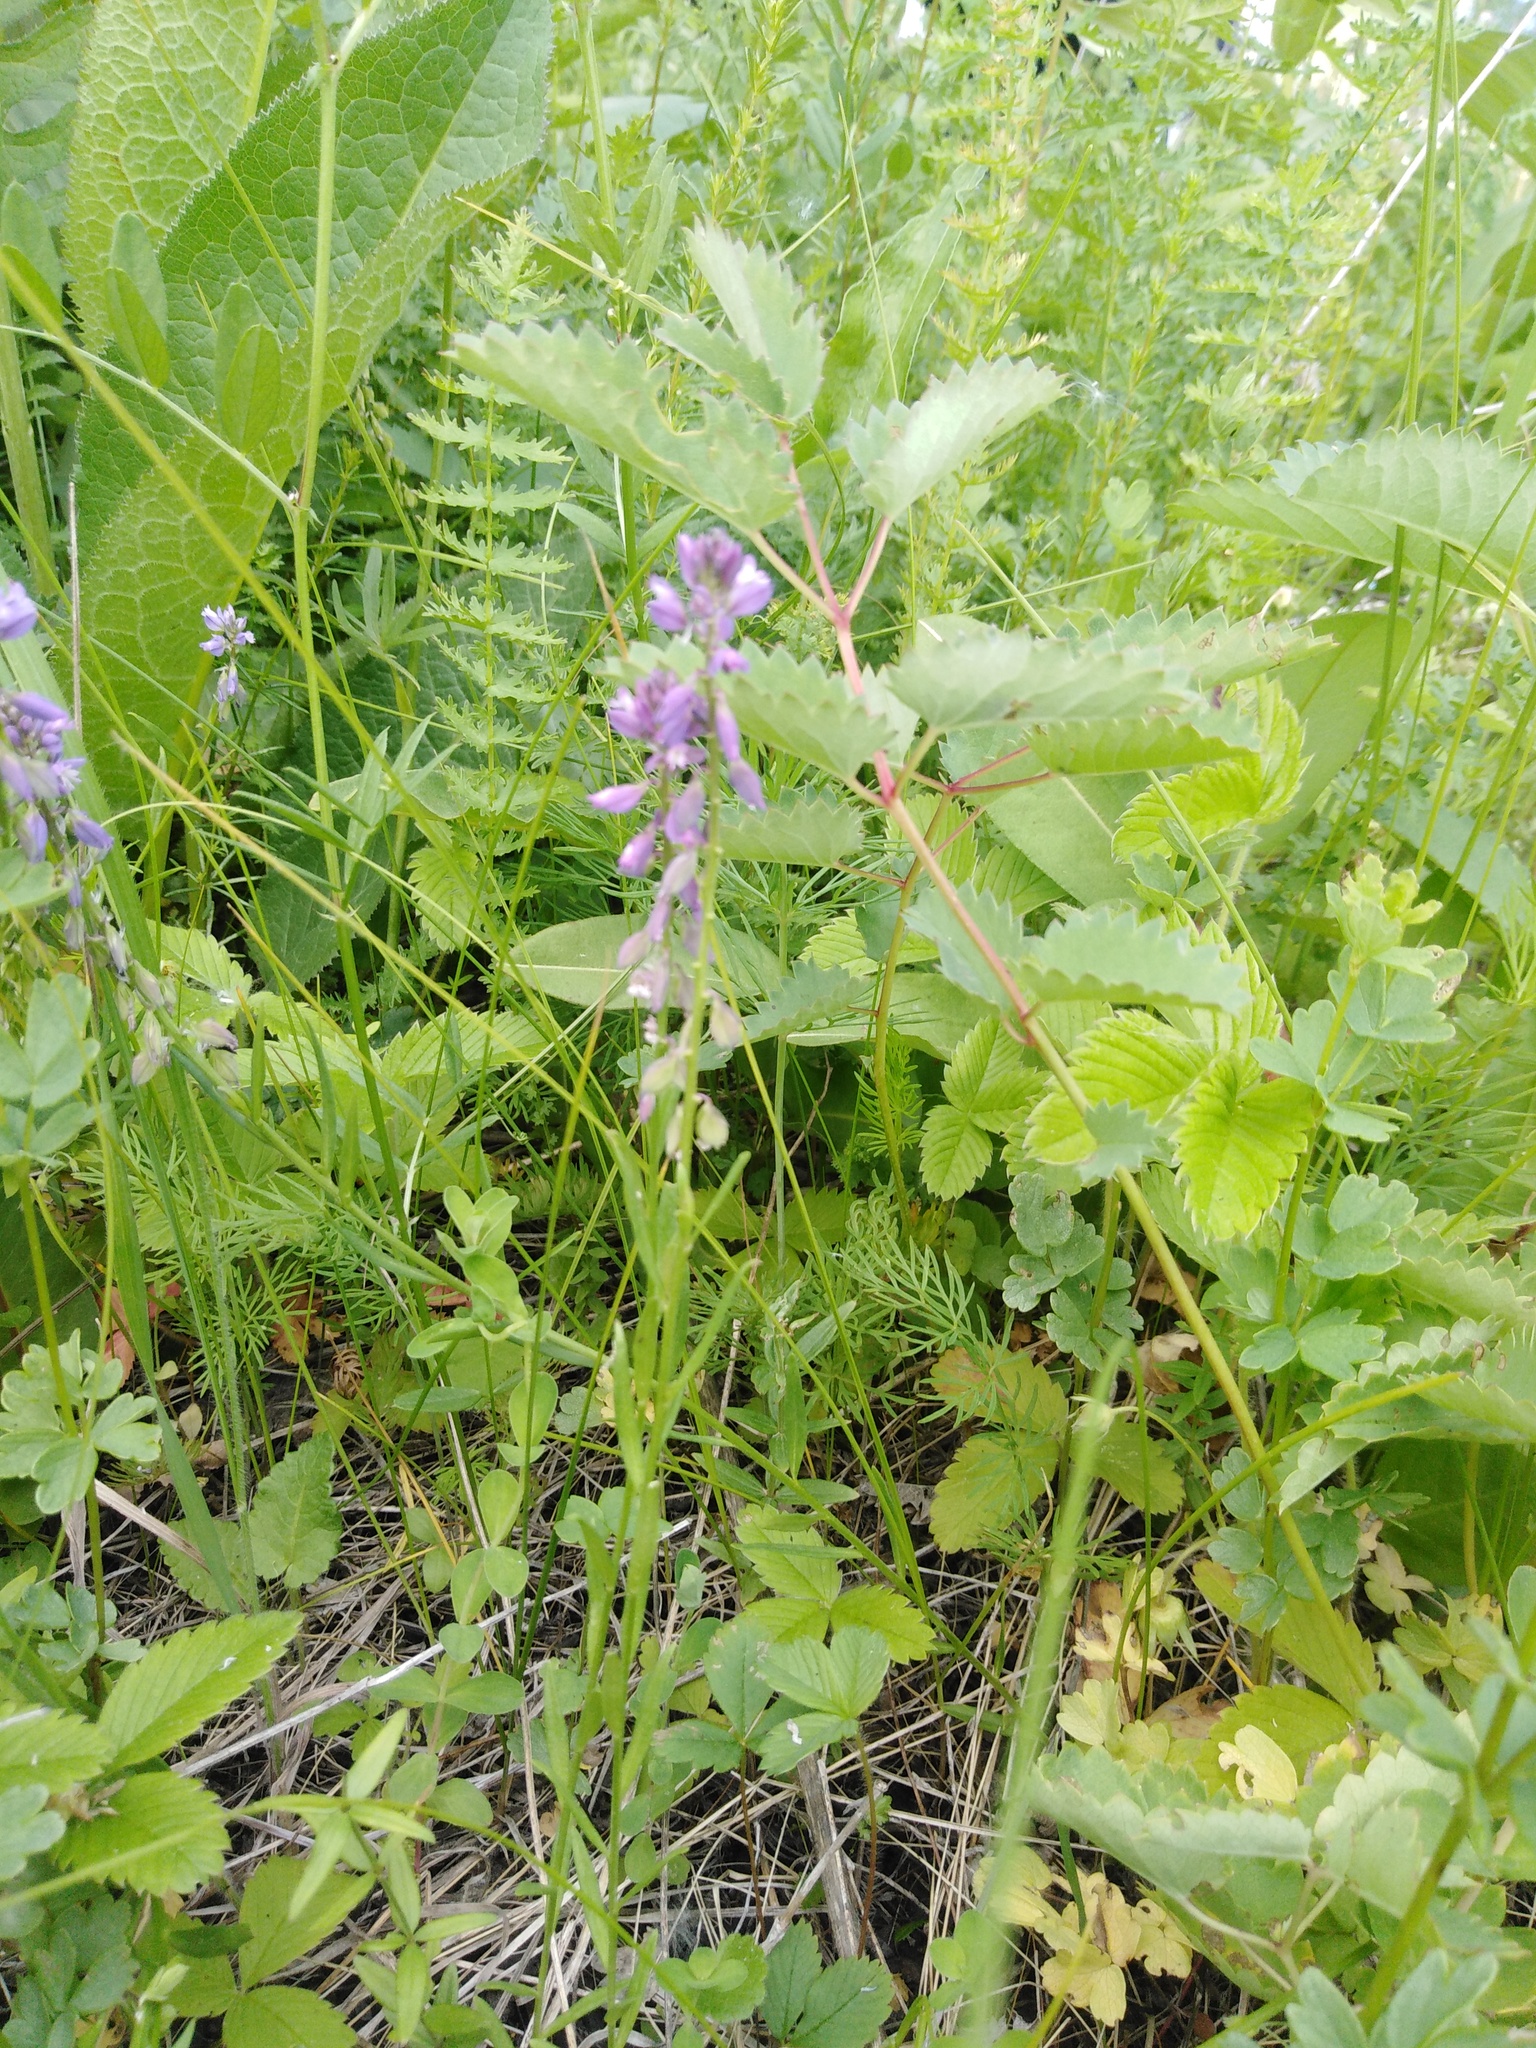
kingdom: Plantae
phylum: Tracheophyta
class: Magnoliopsida
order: Fabales
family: Polygalaceae
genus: Polygala
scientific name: Polygala comosa
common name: Tufted milkwort
